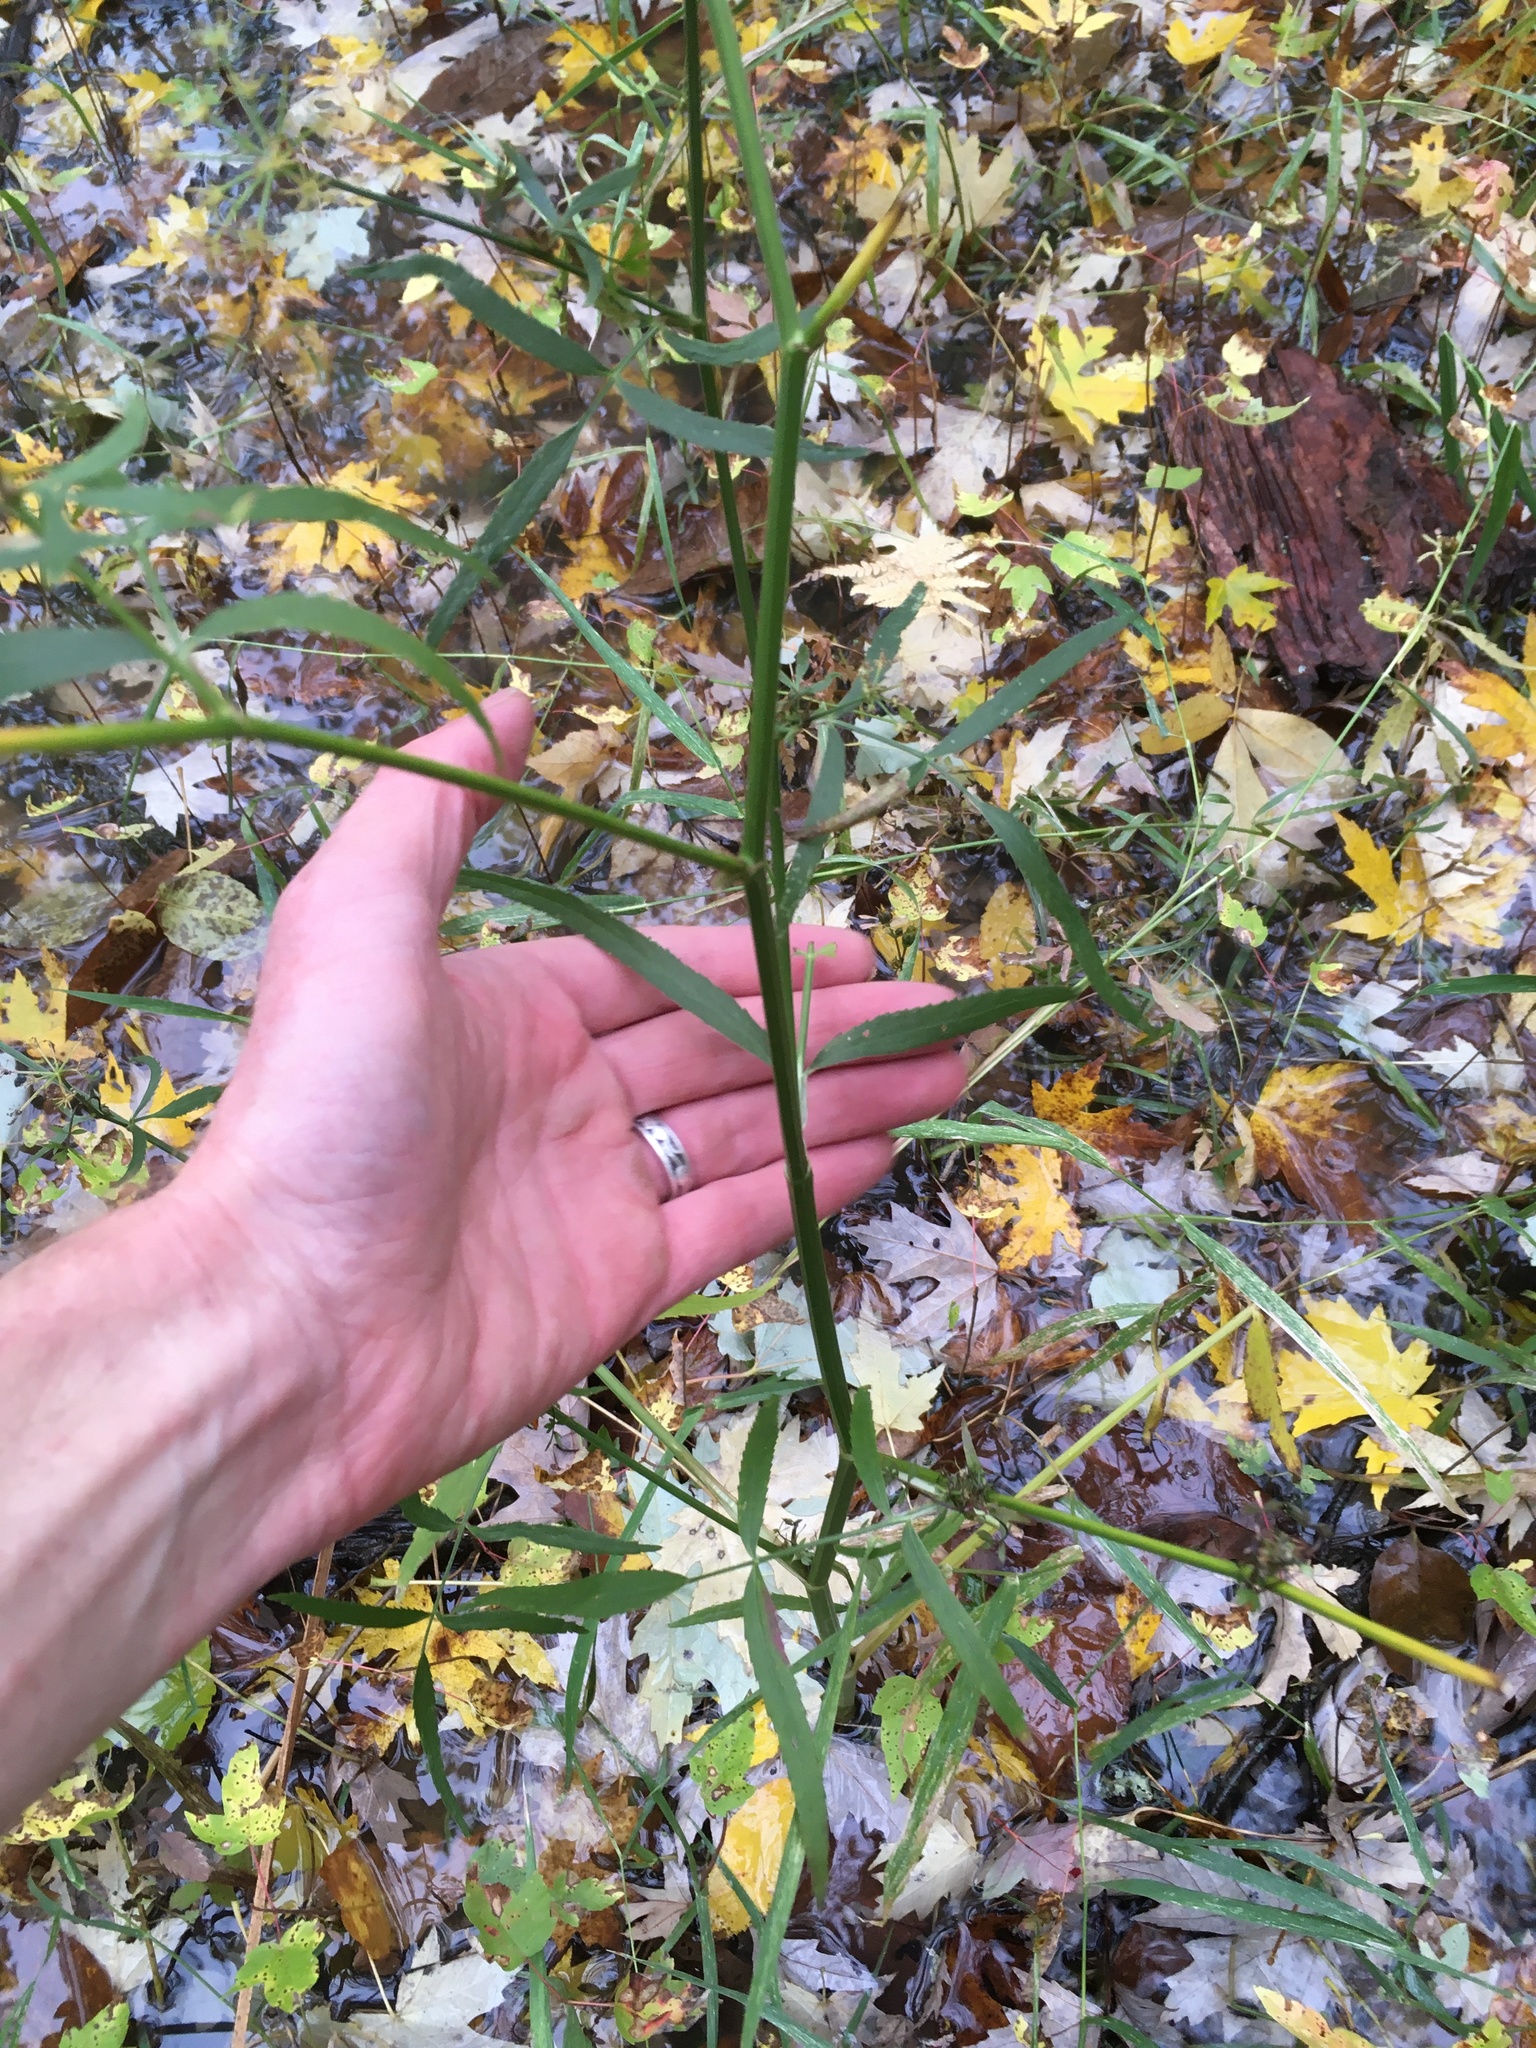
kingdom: Plantae
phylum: Tracheophyta
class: Magnoliopsida
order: Apiales
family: Apiaceae
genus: Sium
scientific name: Sium suave
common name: Hemlock water-parsnip
